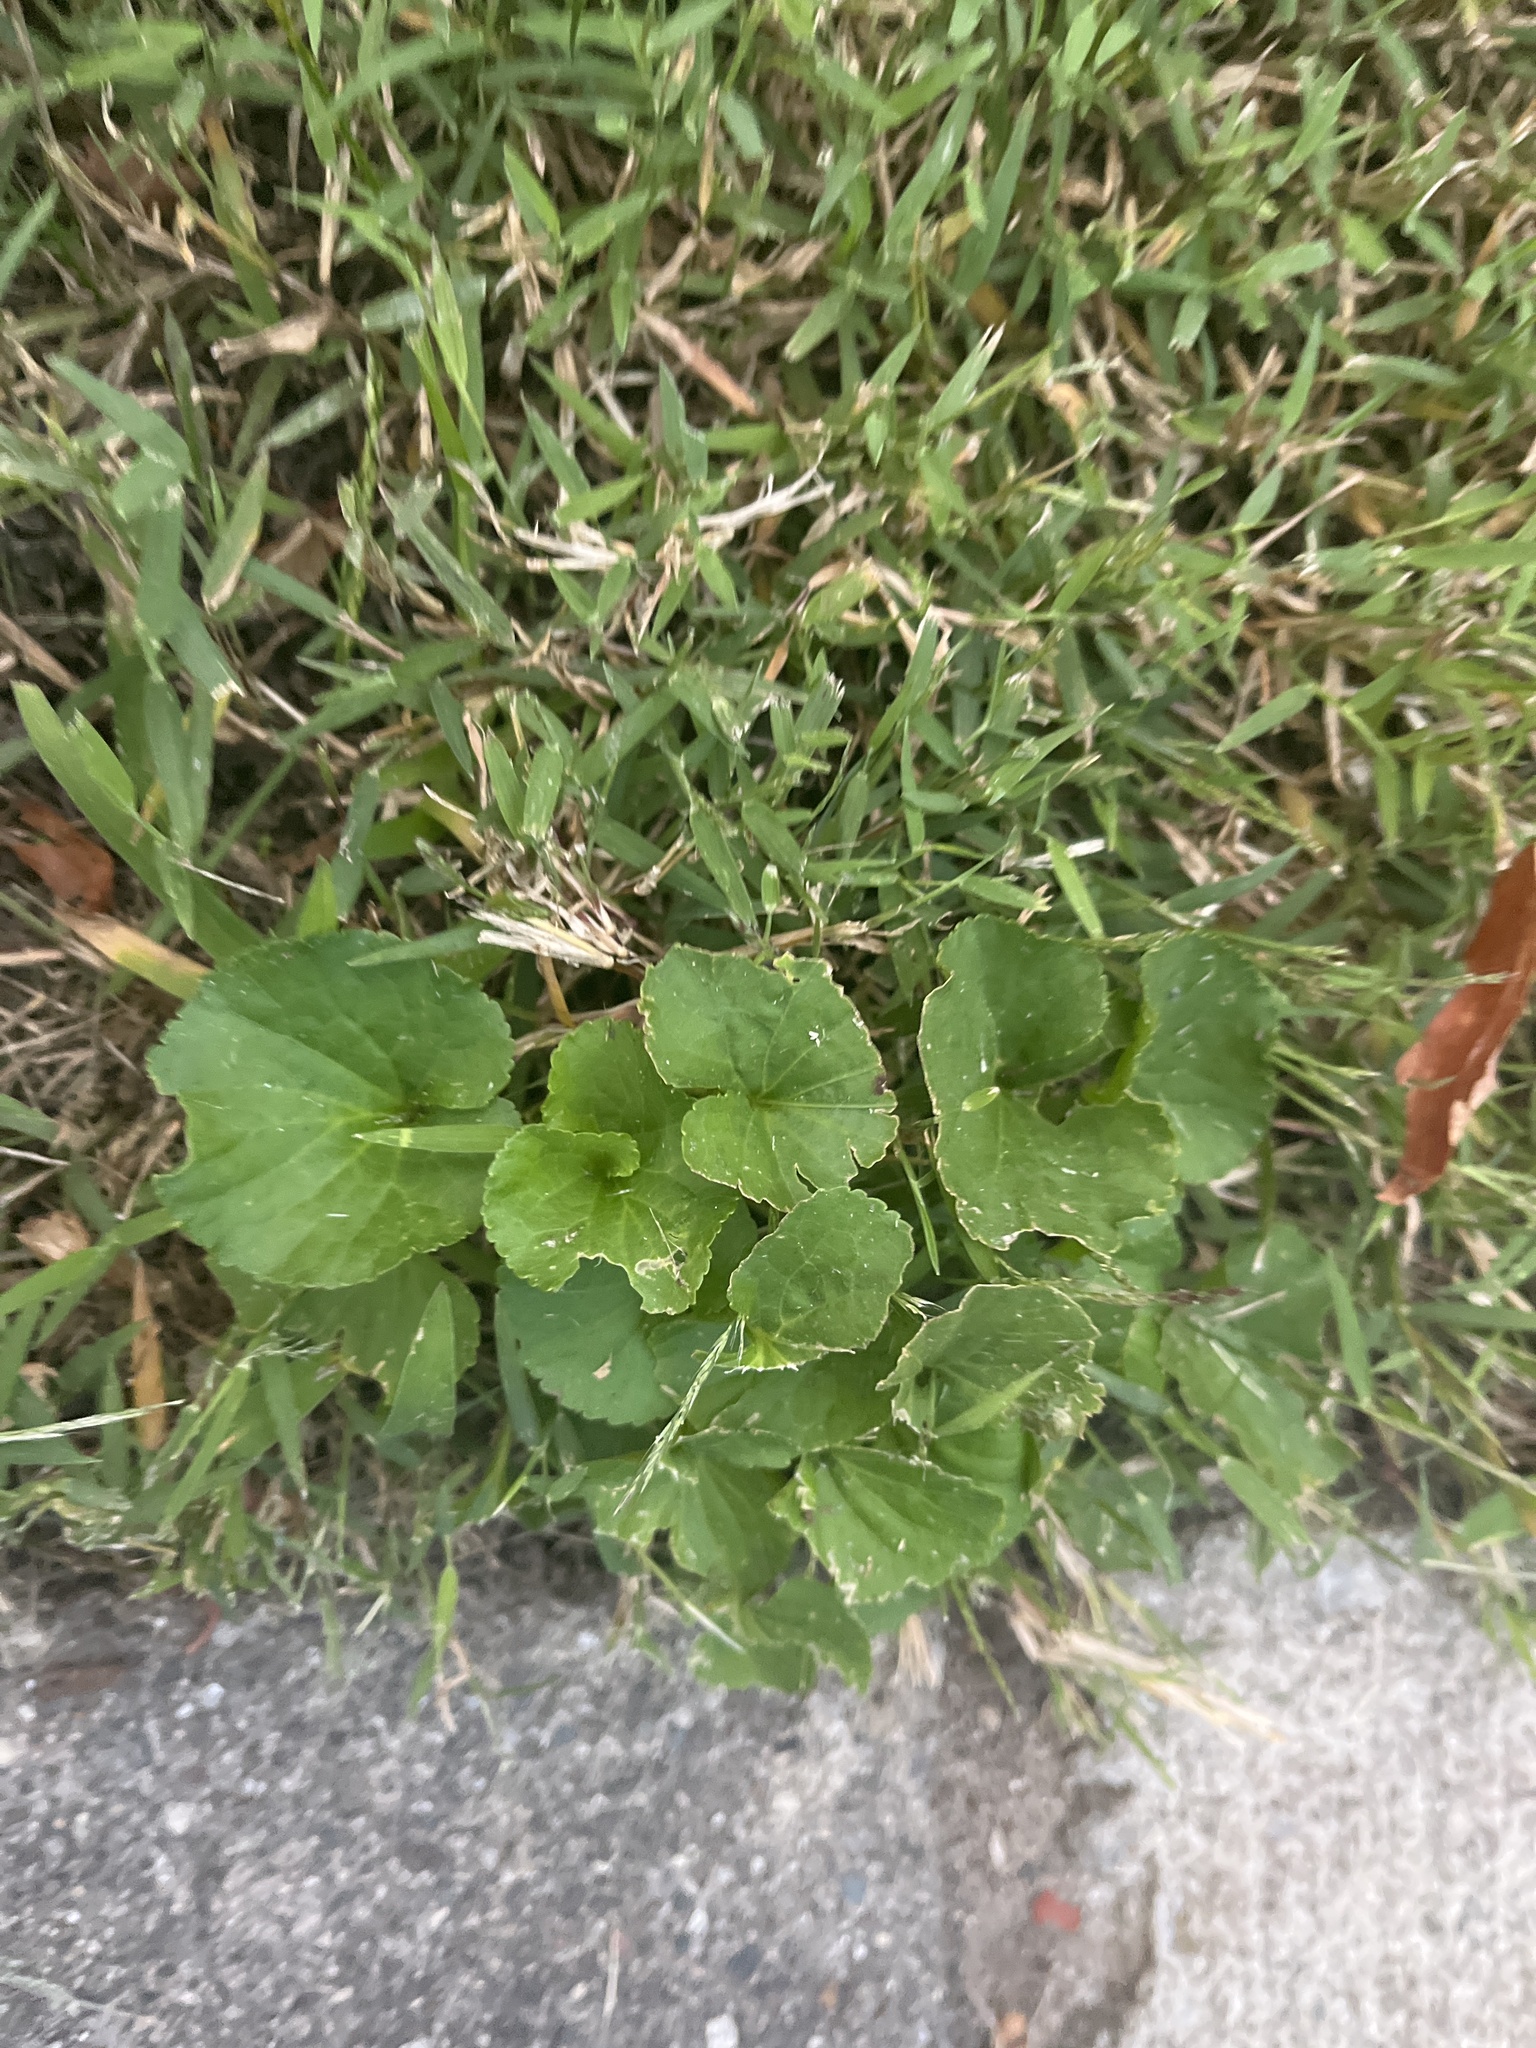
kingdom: Plantae
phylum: Tracheophyta
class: Magnoliopsida
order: Malpighiales
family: Violaceae
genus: Viola
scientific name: Viola sororia
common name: Dooryard violet
